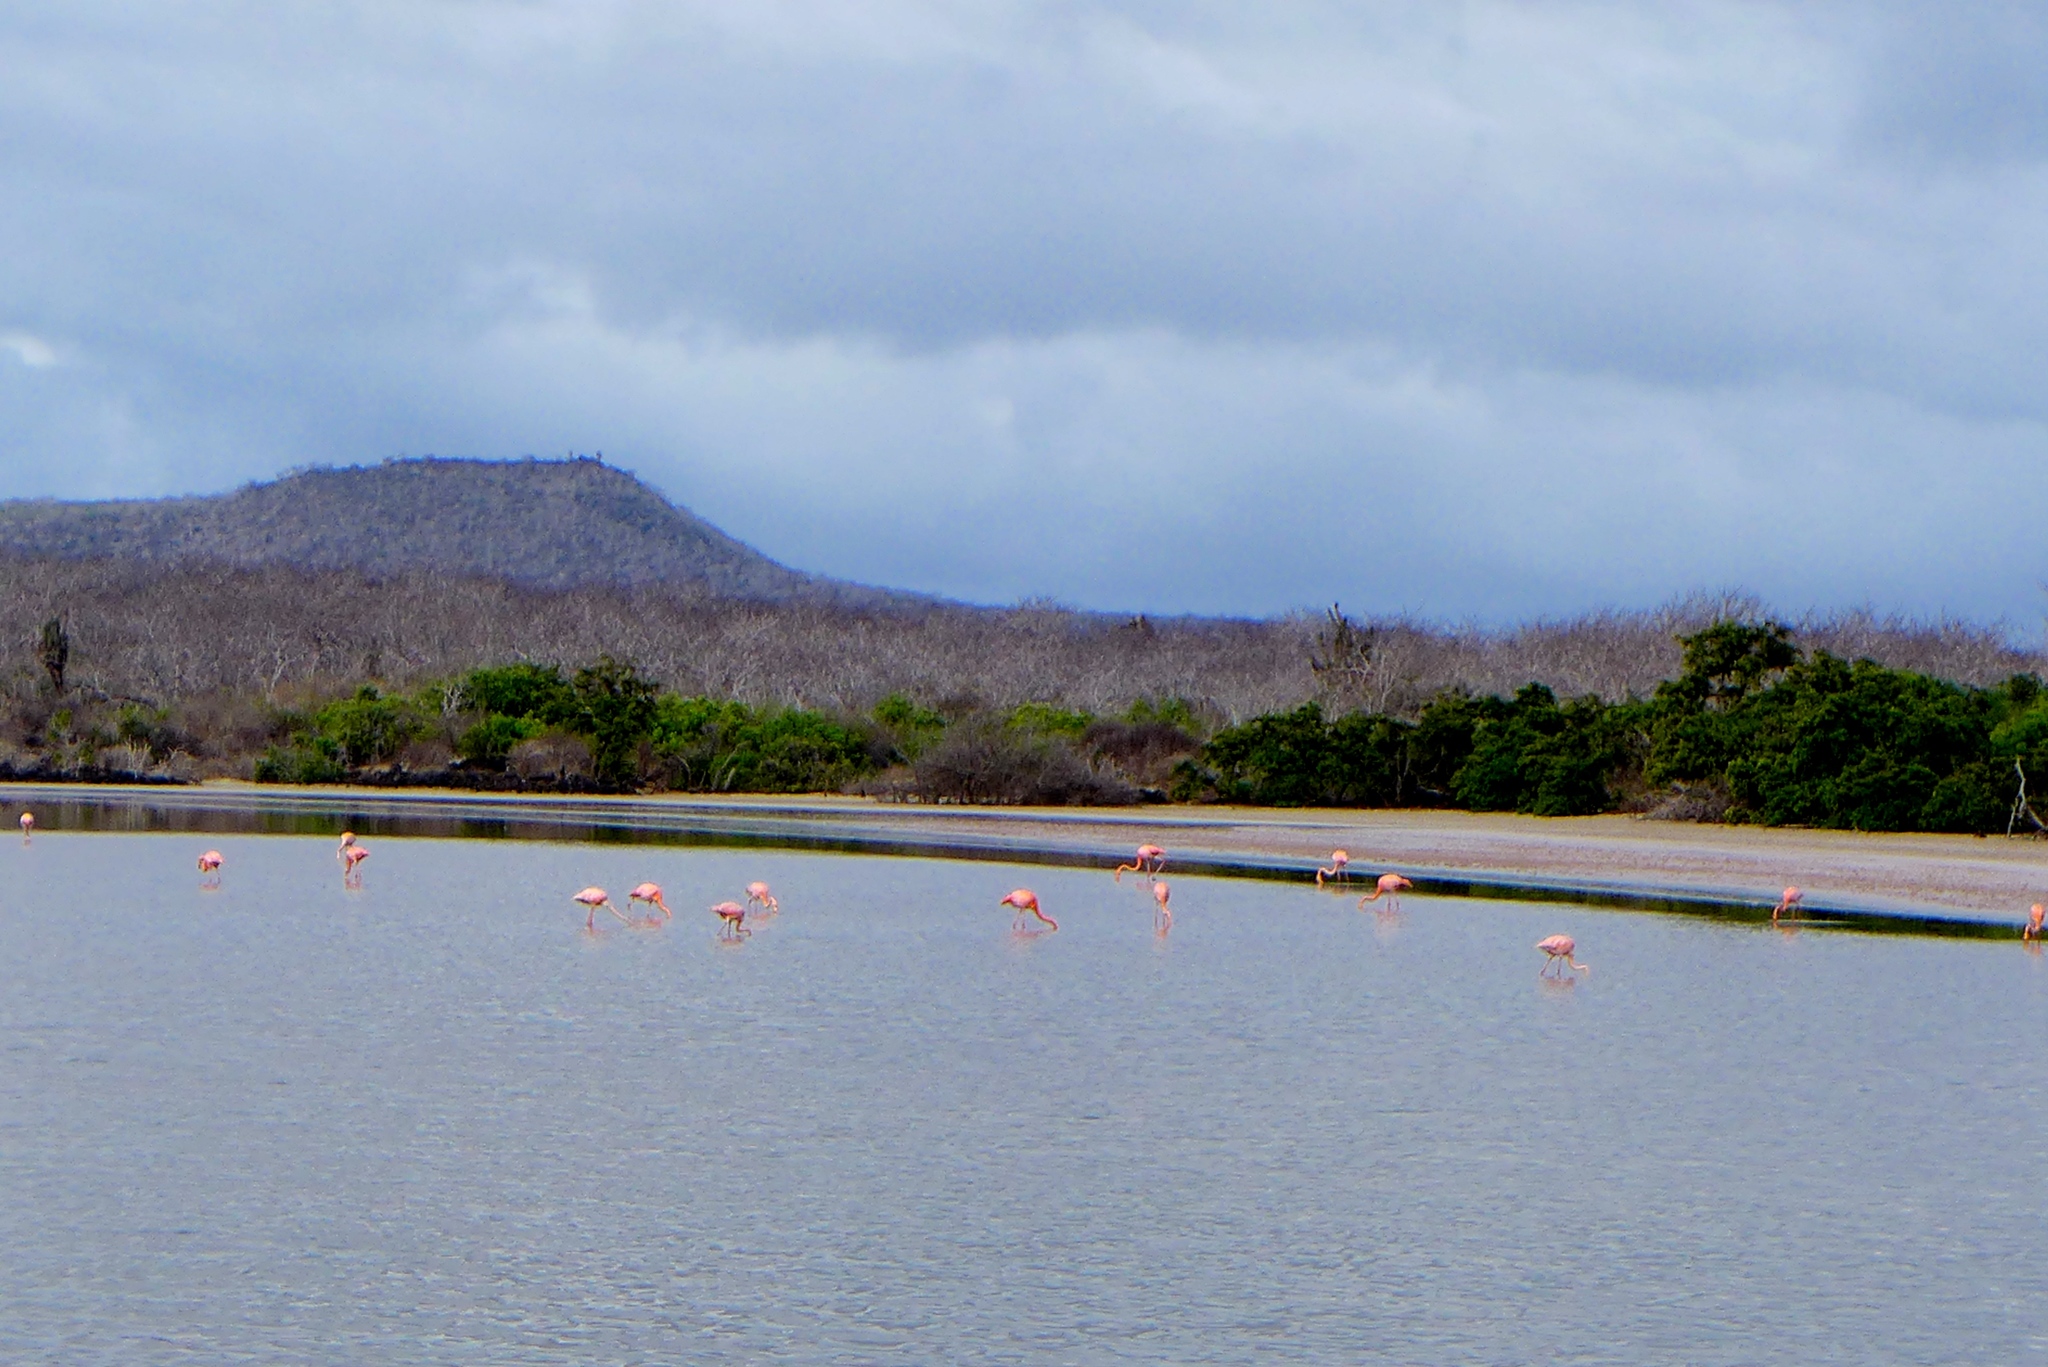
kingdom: Animalia
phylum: Chordata
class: Aves
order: Phoenicopteriformes
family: Phoenicopteridae
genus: Phoenicopterus
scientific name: Phoenicopterus ruber
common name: American flamingo
